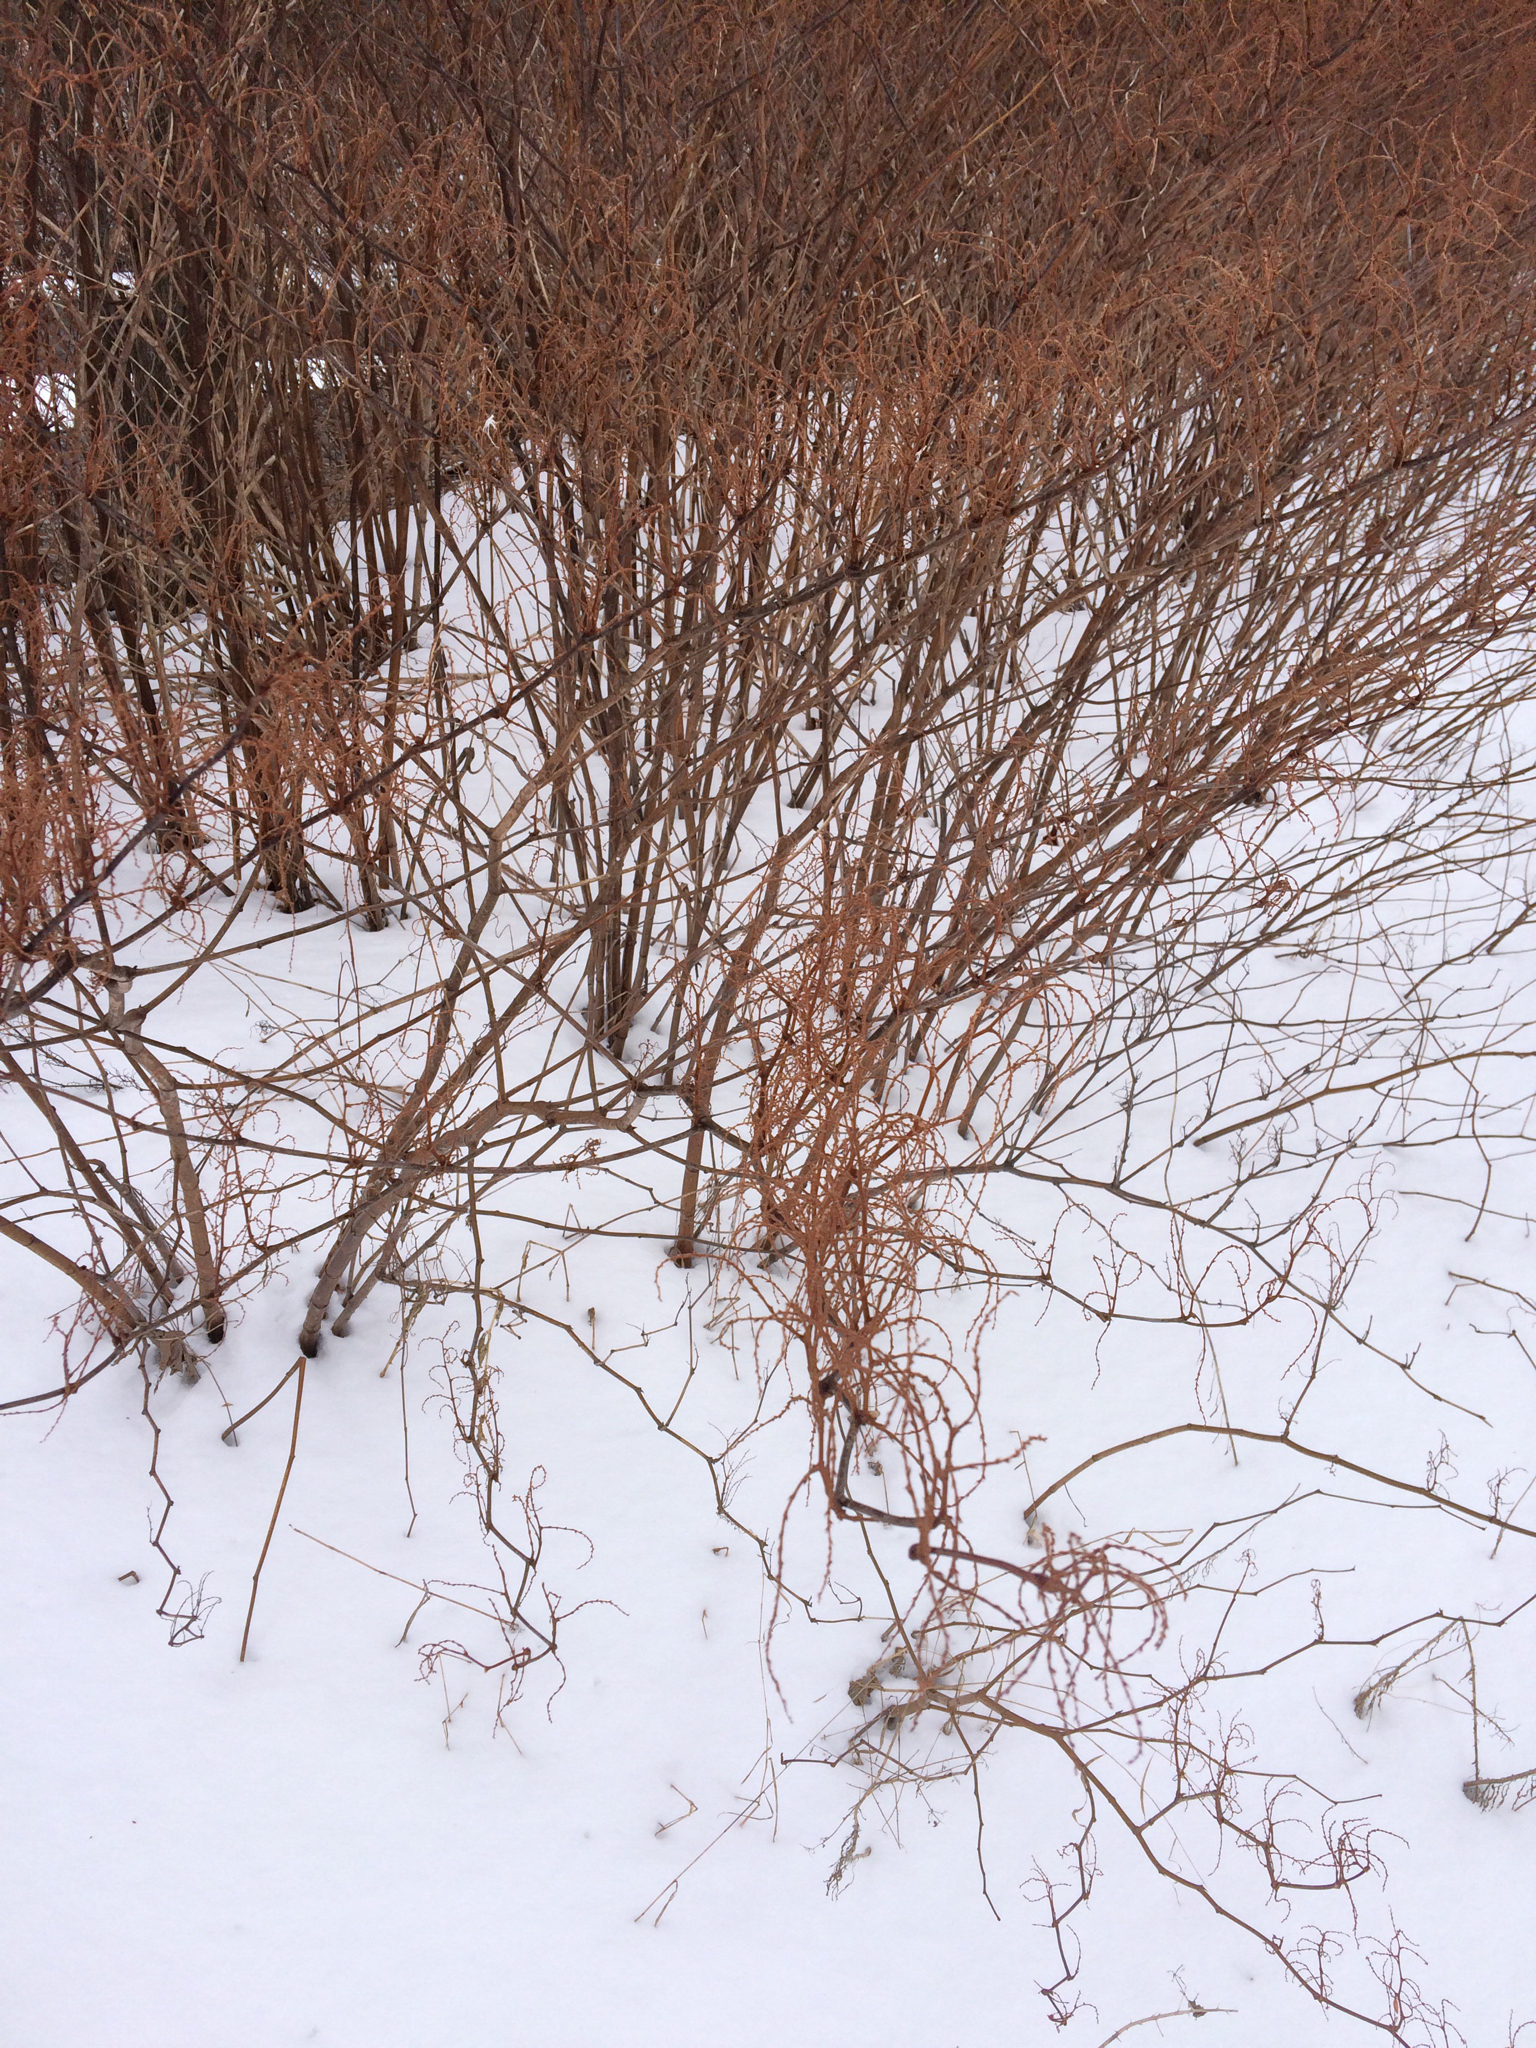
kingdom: Plantae
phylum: Tracheophyta
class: Magnoliopsida
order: Caryophyllales
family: Polygonaceae
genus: Reynoutria
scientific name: Reynoutria japonica
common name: Japanese knotweed
